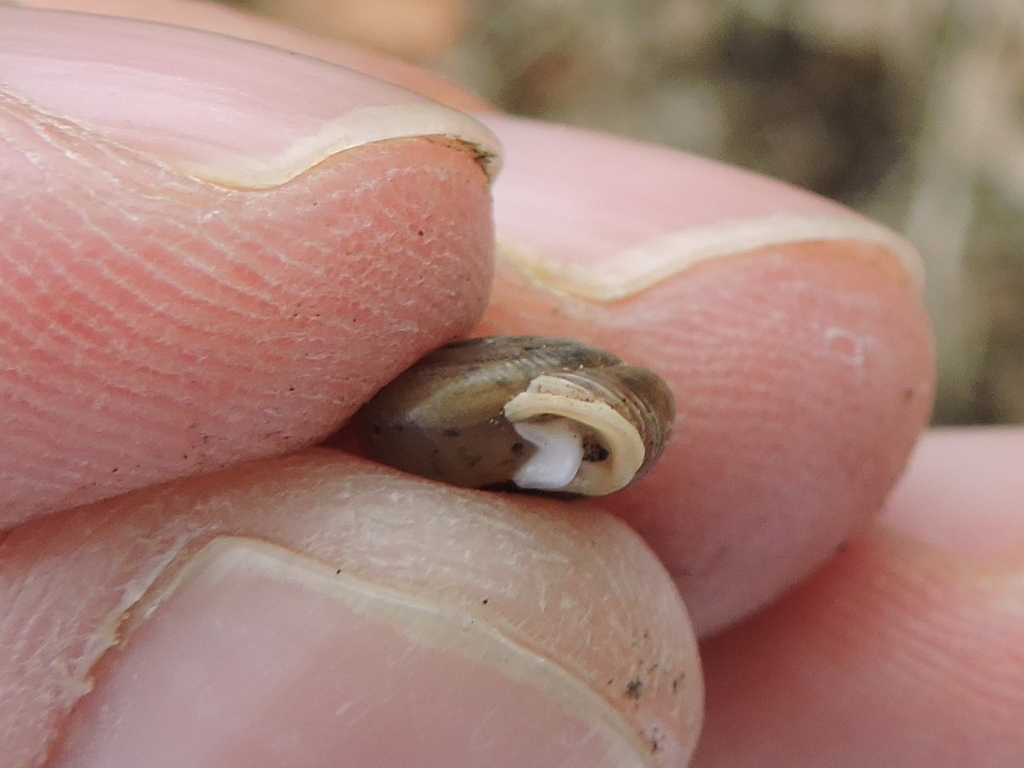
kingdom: Animalia
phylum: Mollusca
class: Gastropoda
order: Stylommatophora
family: Polygyridae
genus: Linisa
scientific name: Linisa texasiana
